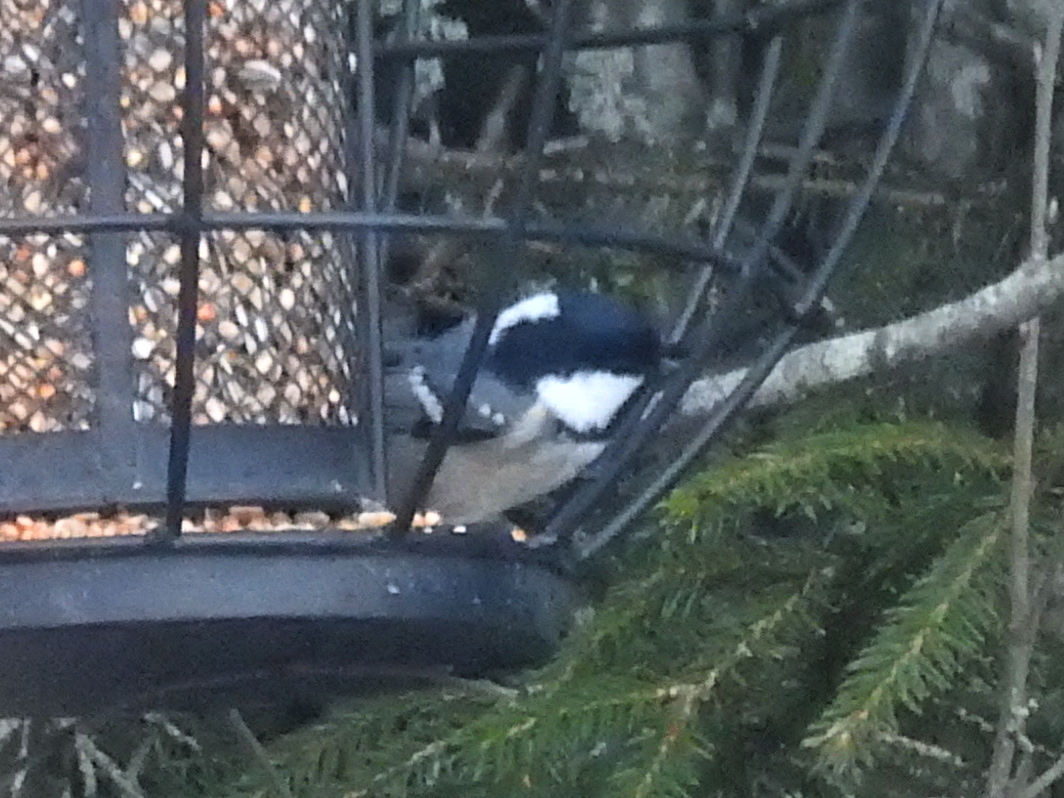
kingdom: Animalia
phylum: Chordata
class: Aves
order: Passeriformes
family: Paridae
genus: Periparus
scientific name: Periparus ater
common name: Coal tit
